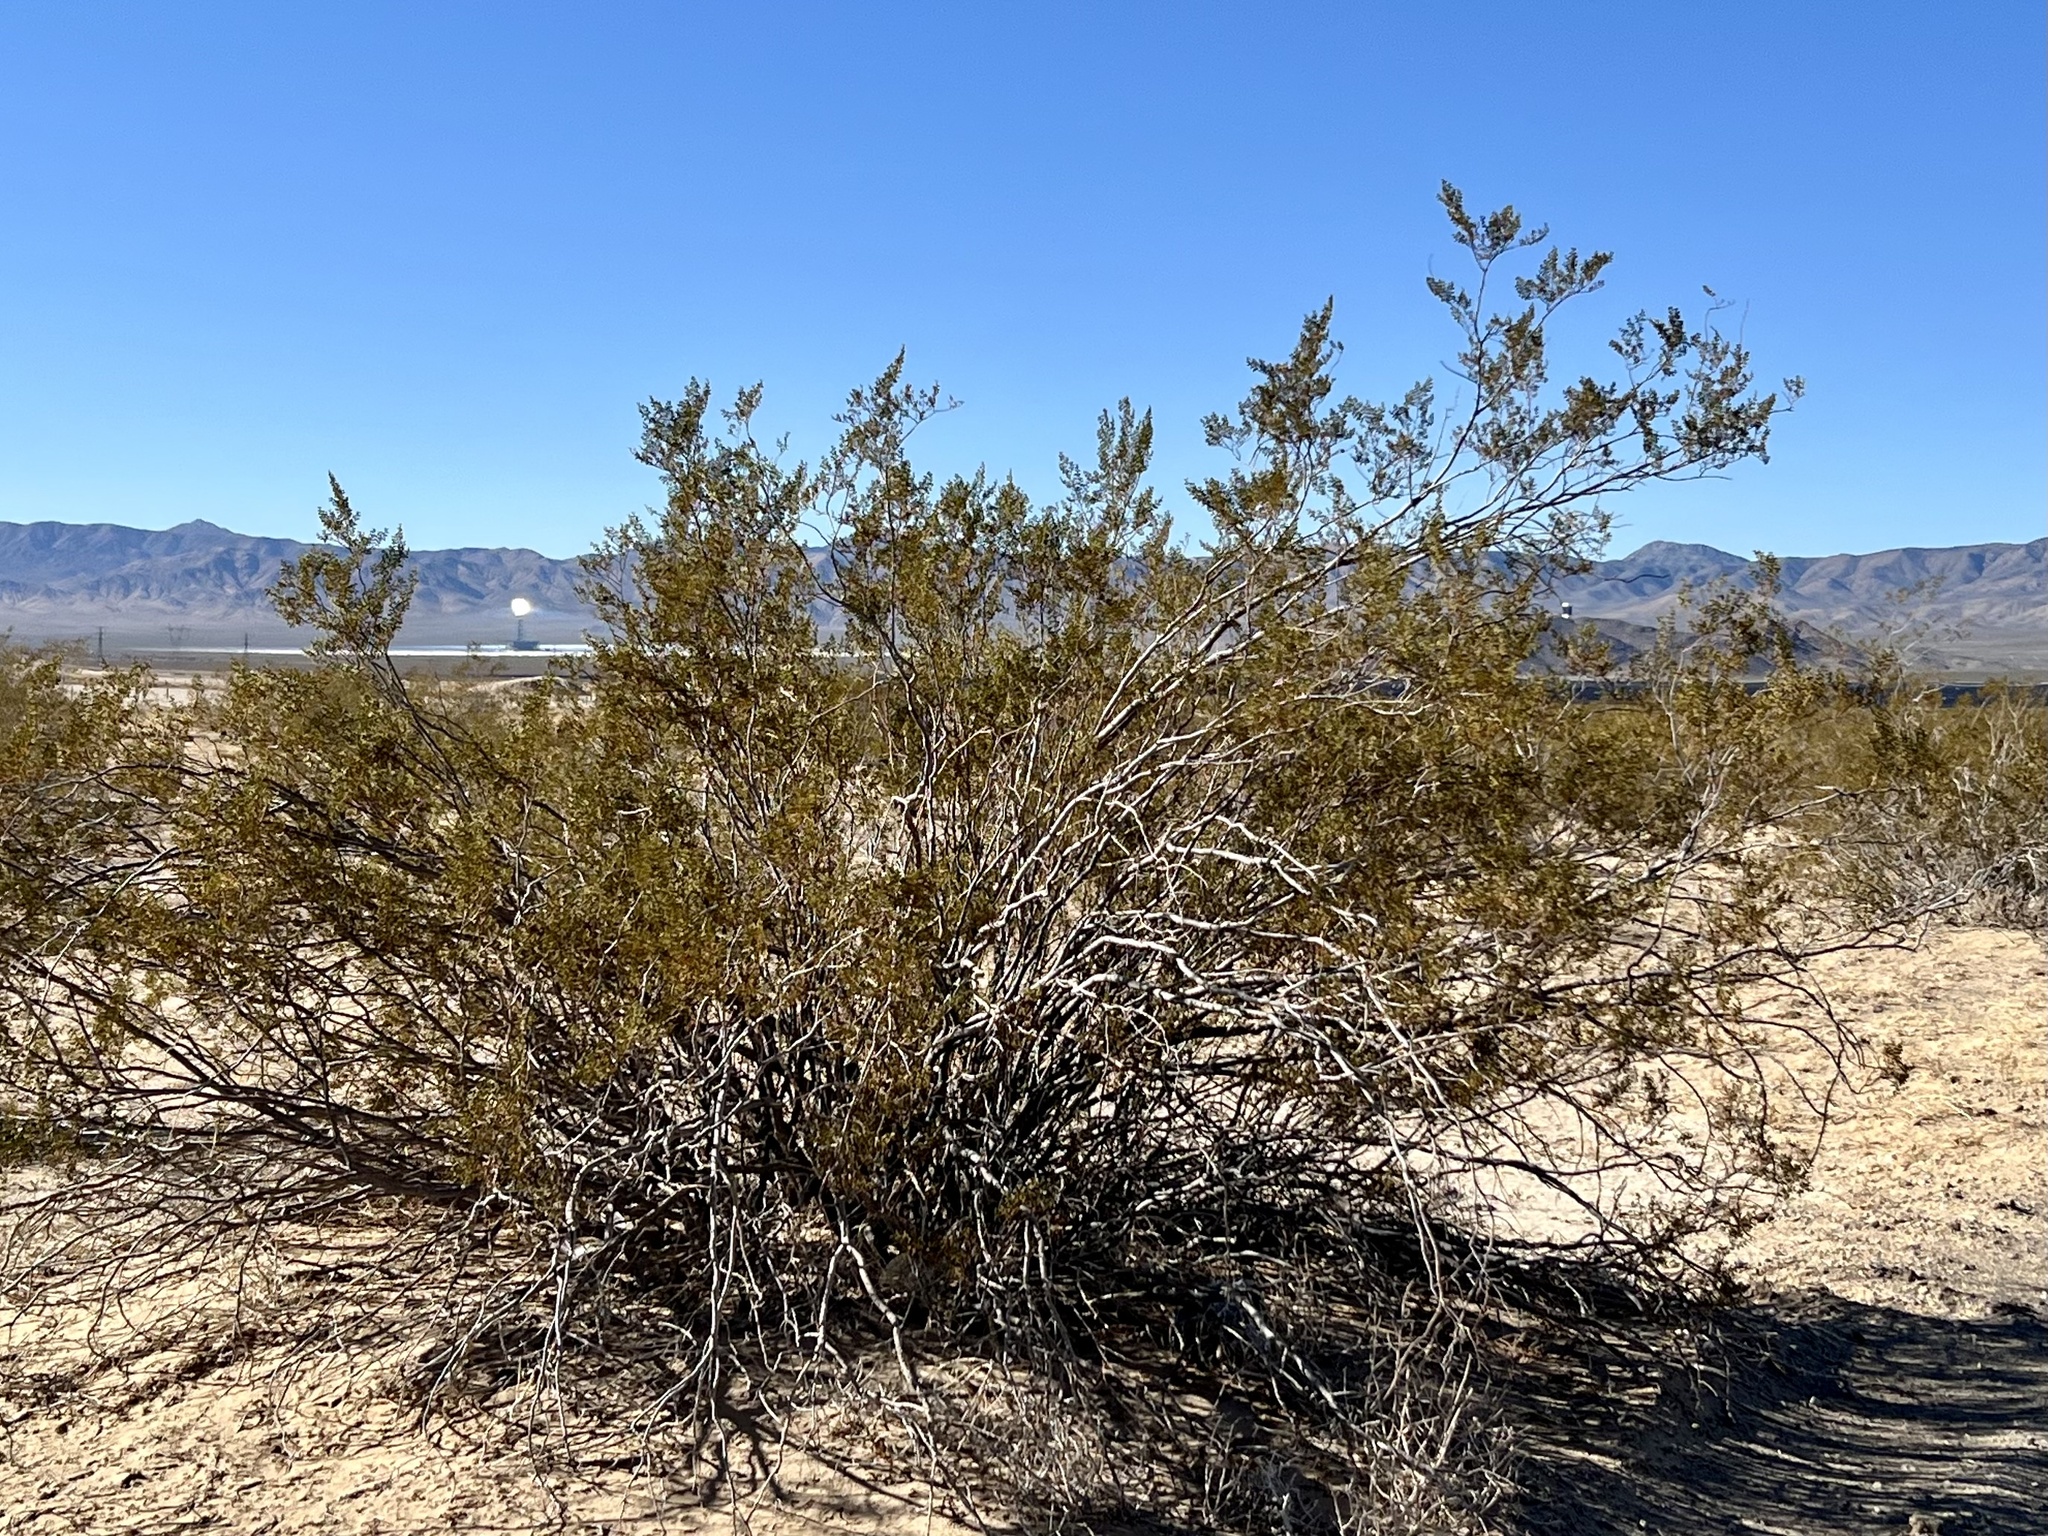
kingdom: Plantae
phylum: Tracheophyta
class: Magnoliopsida
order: Zygophyllales
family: Zygophyllaceae
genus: Larrea
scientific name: Larrea tridentata
